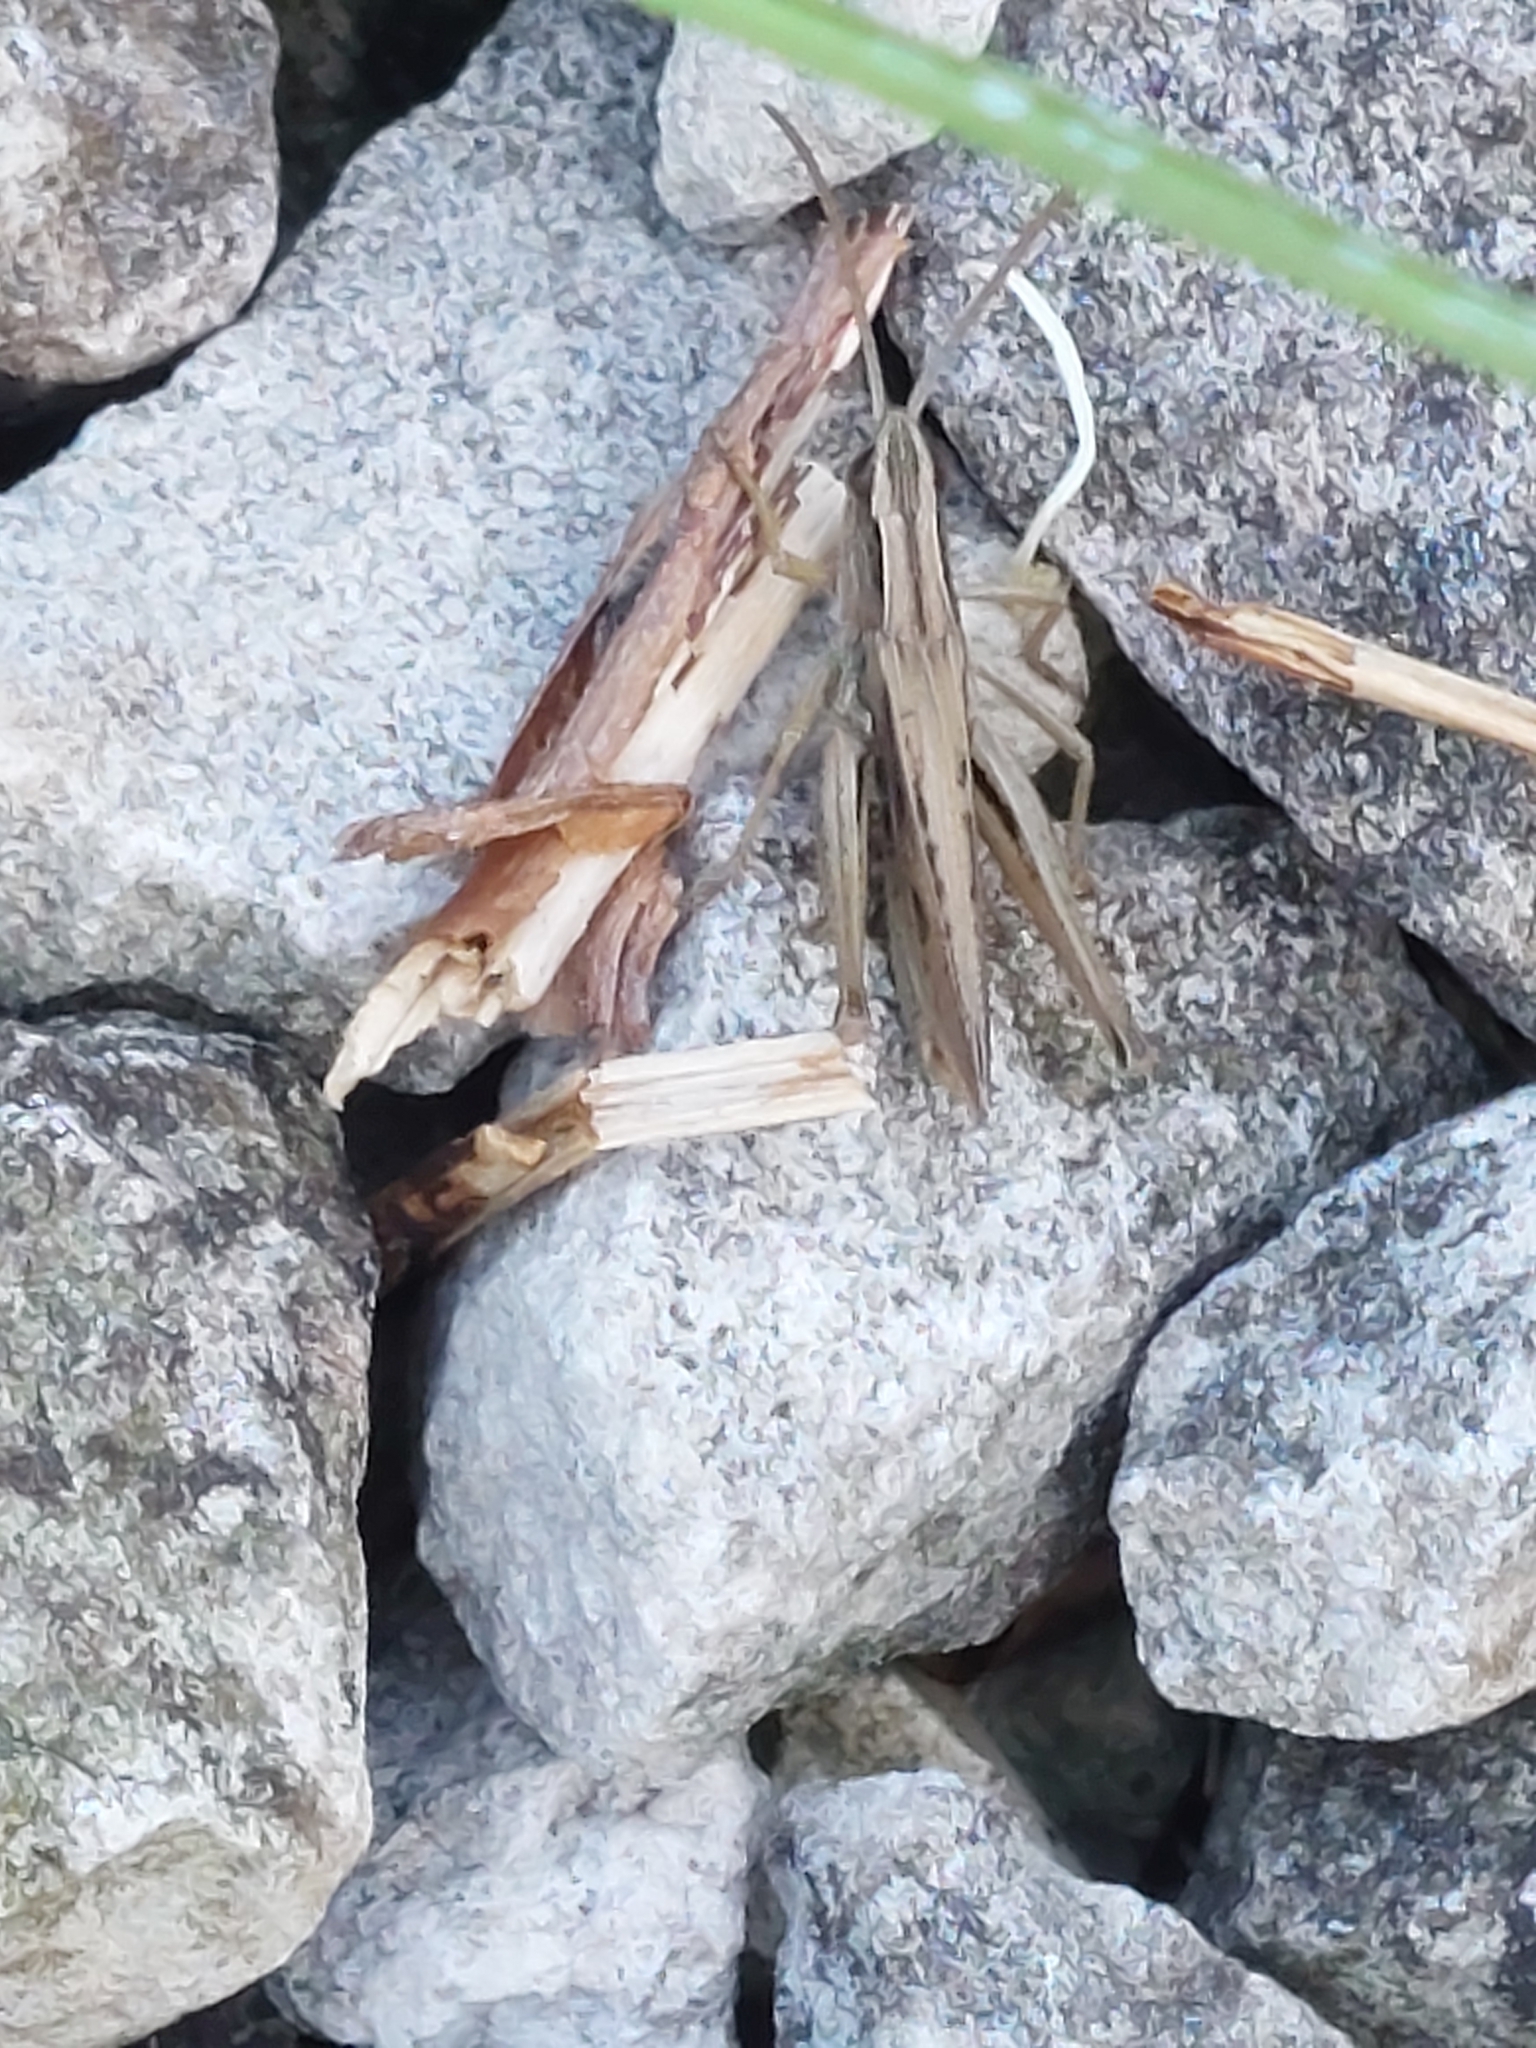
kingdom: Animalia
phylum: Arthropoda
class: Insecta
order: Orthoptera
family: Acrididae
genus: Chorthippus
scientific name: Chorthippus albomarginatus
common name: Lesser marsh grasshopper
